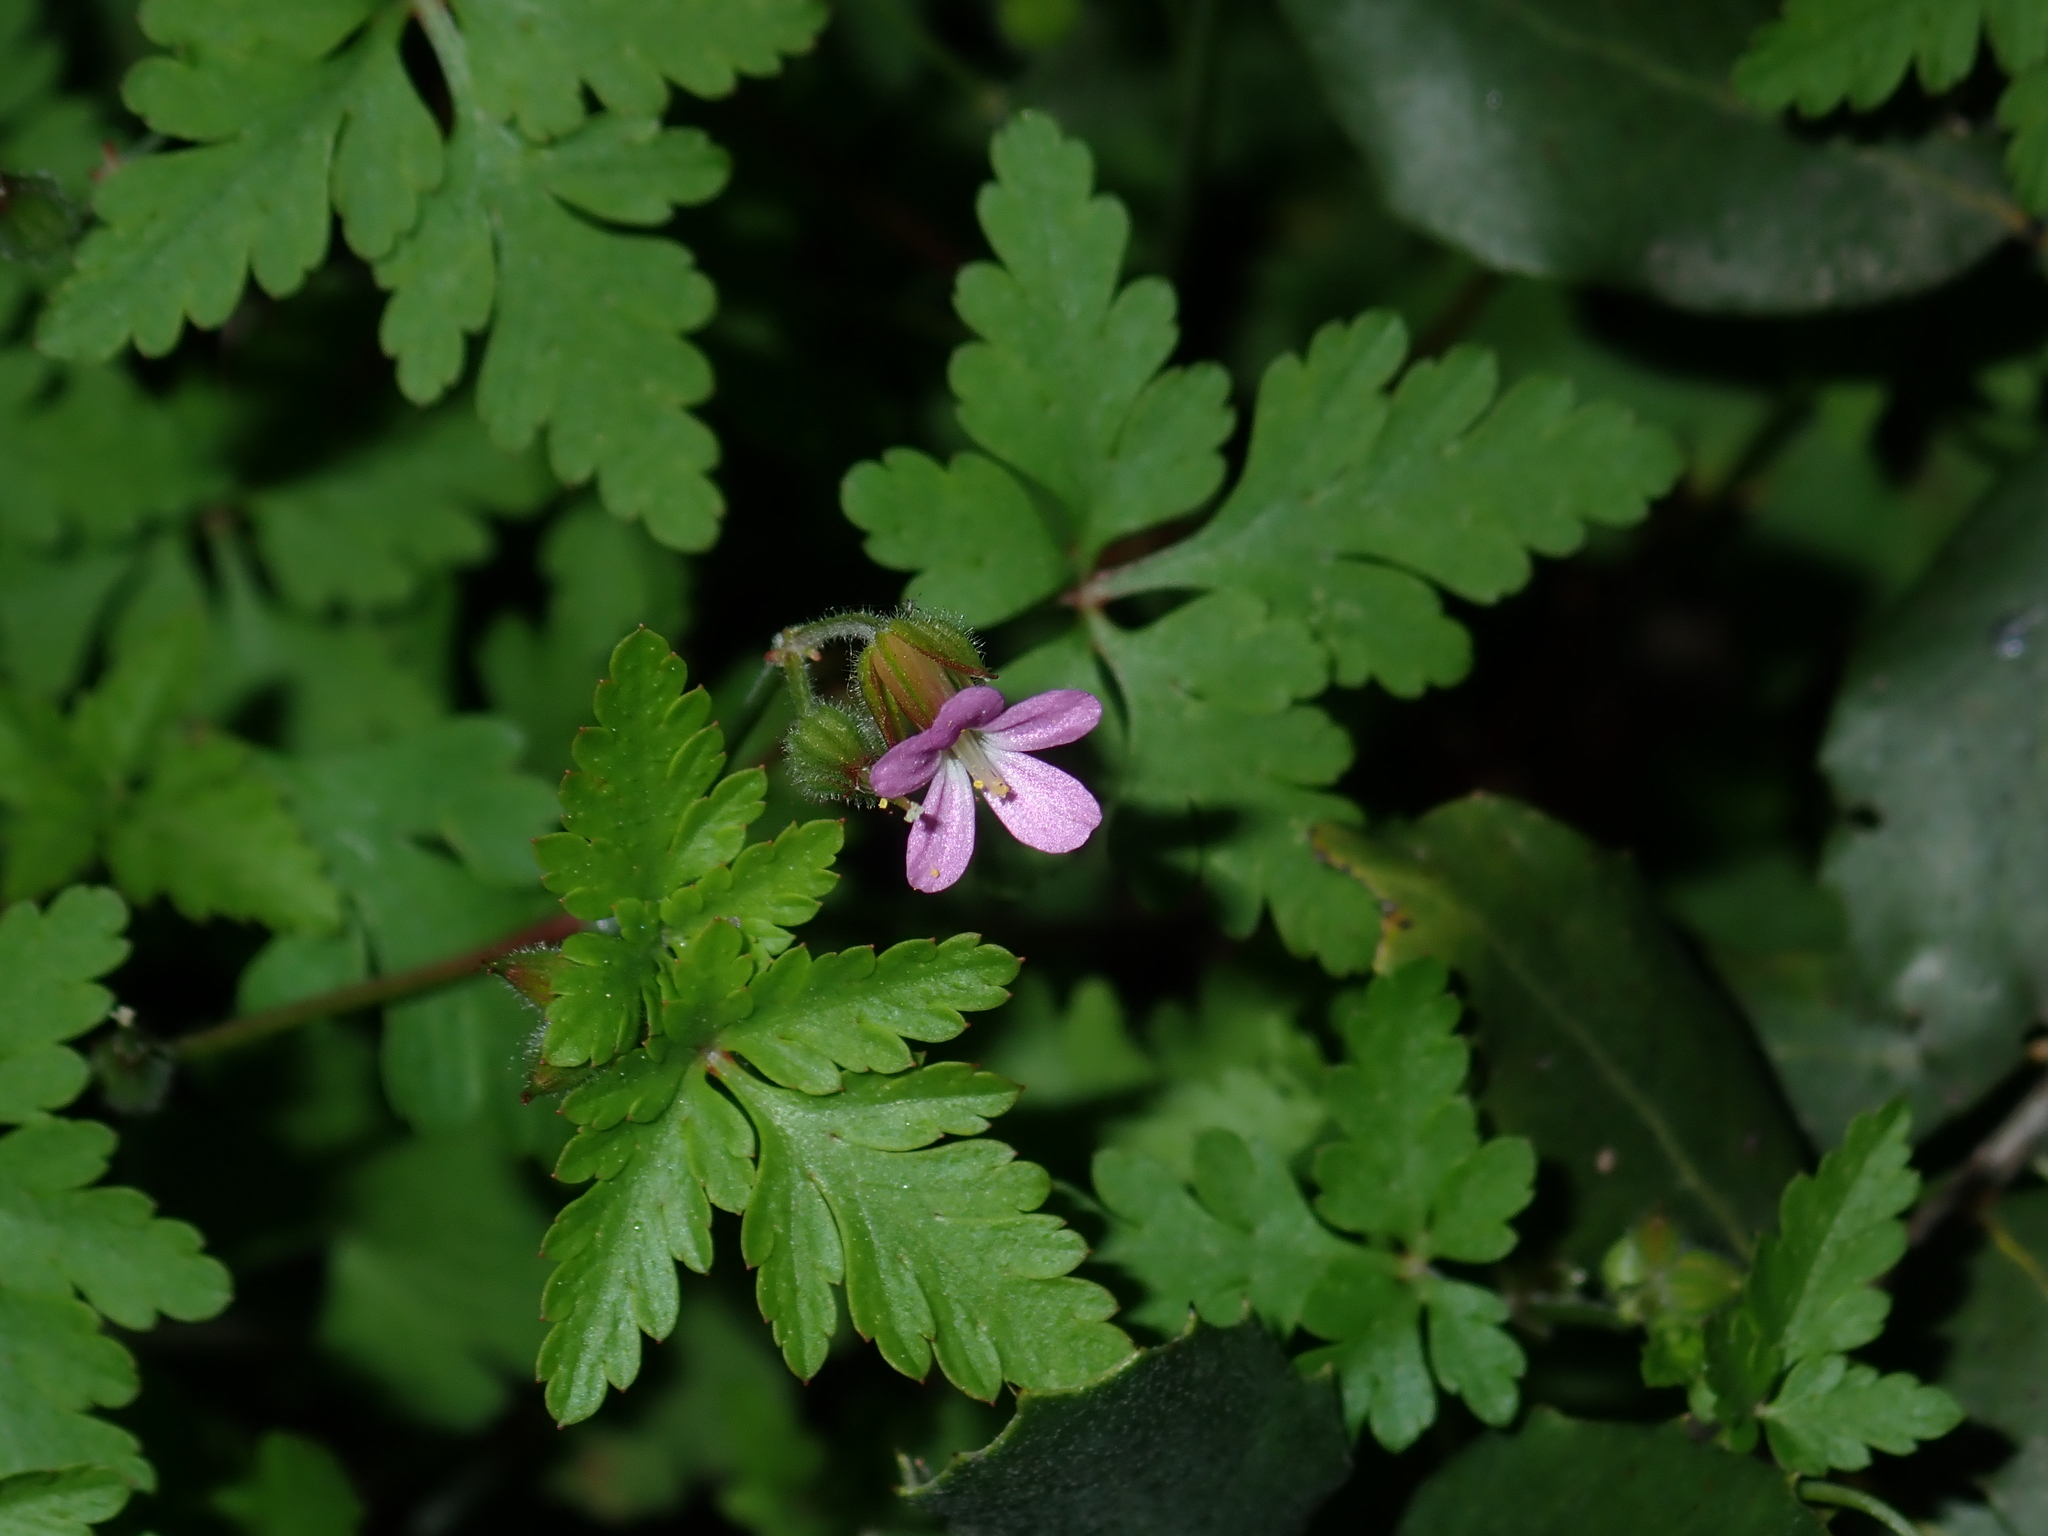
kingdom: Plantae
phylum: Tracheophyta
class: Magnoliopsida
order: Geraniales
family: Geraniaceae
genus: Geranium
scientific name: Geranium robertianum
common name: Herb-robert
